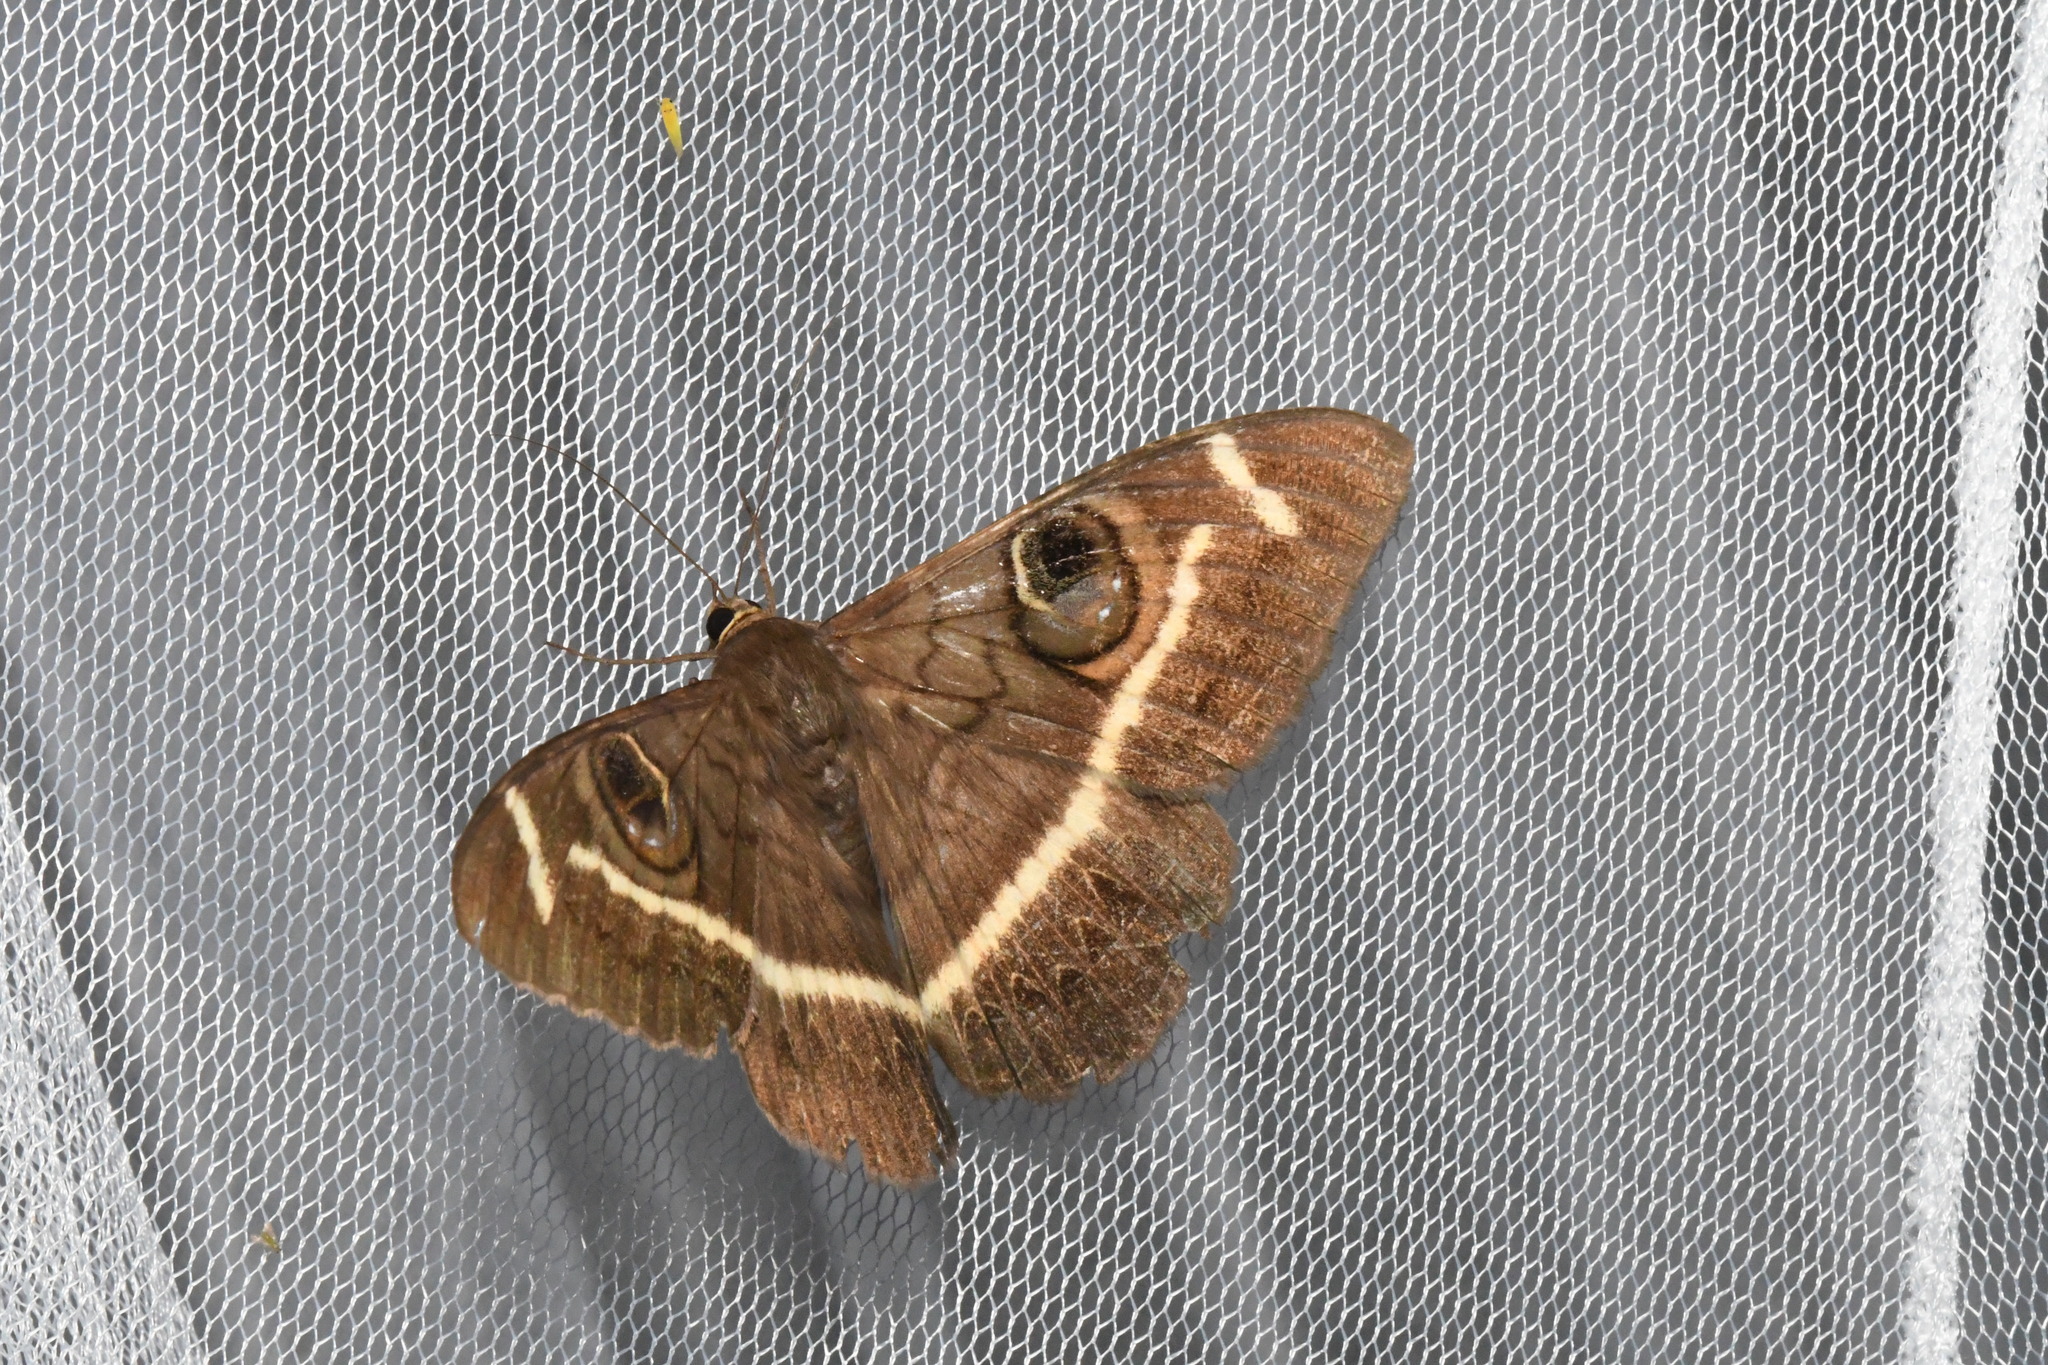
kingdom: Animalia
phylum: Arthropoda
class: Insecta
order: Lepidoptera
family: Erebidae
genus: Cyligramma
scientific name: Cyligramma latona
